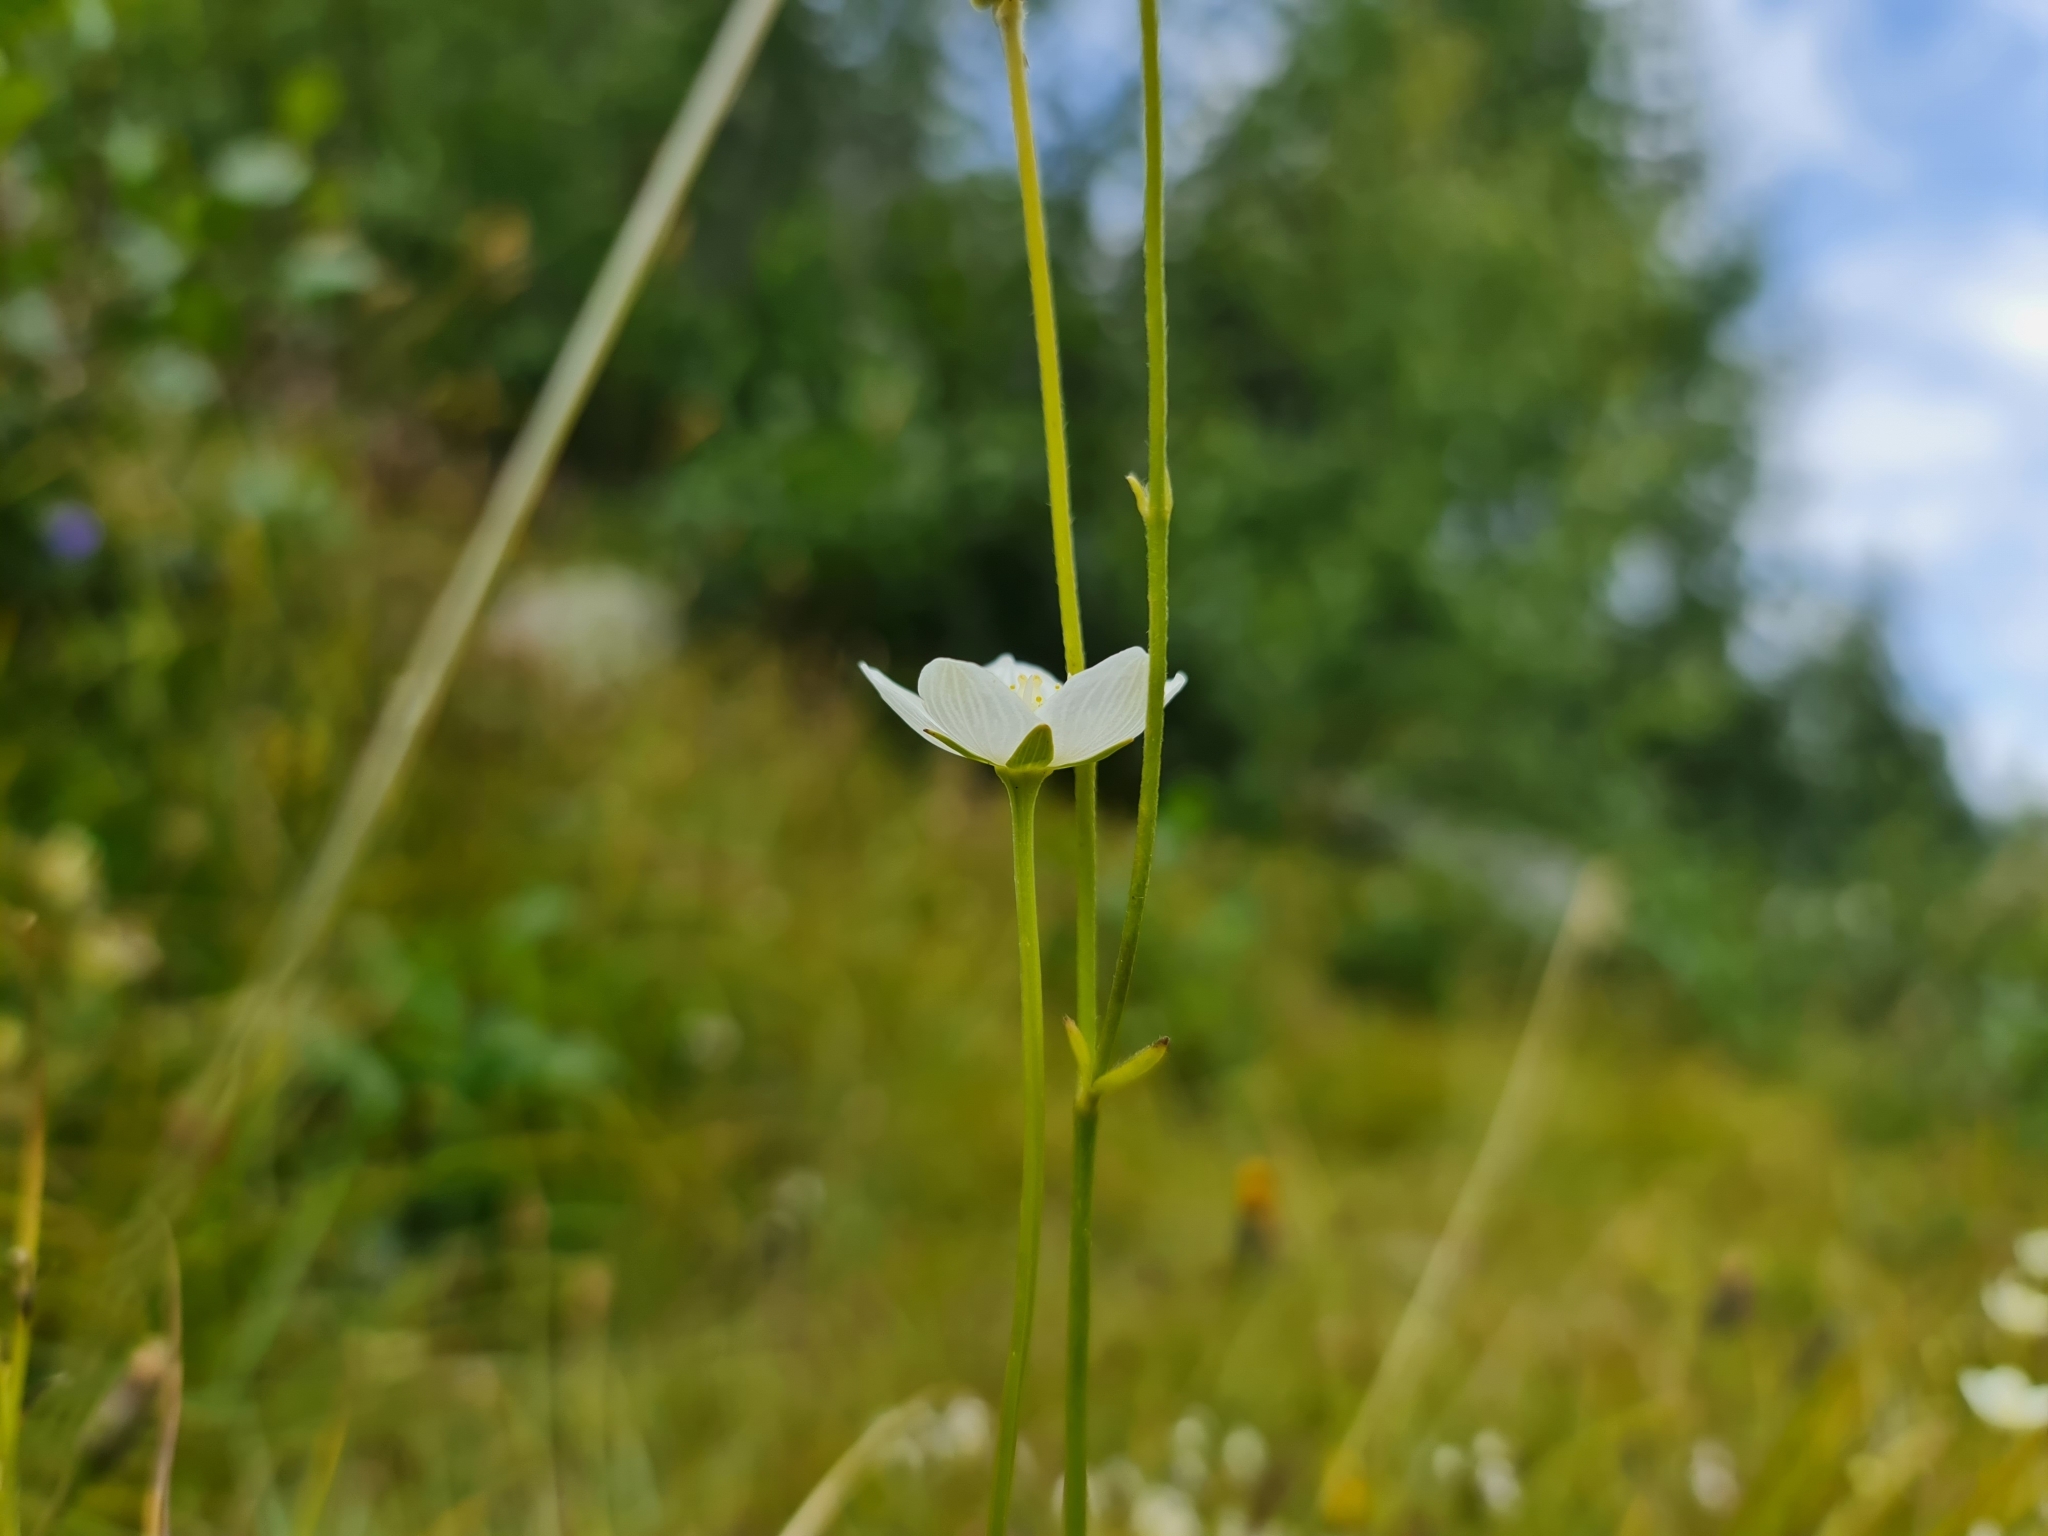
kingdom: Plantae
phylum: Tracheophyta
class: Magnoliopsida
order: Celastrales
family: Parnassiaceae
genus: Parnassia
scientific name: Parnassia palustris
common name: Grass-of-parnassus
